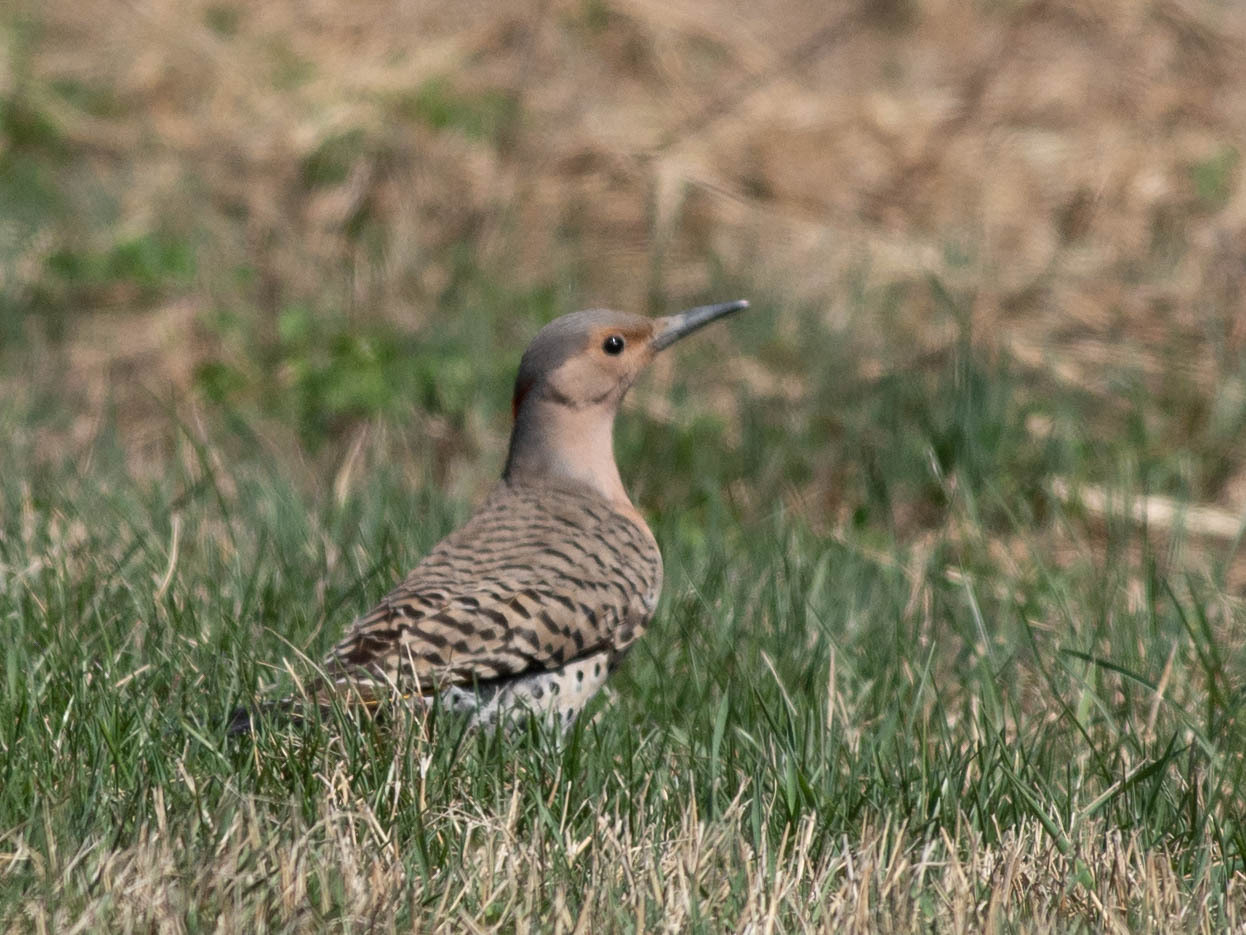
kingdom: Animalia
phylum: Chordata
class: Aves
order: Piciformes
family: Picidae
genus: Colaptes
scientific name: Colaptes auratus
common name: Northern flicker
